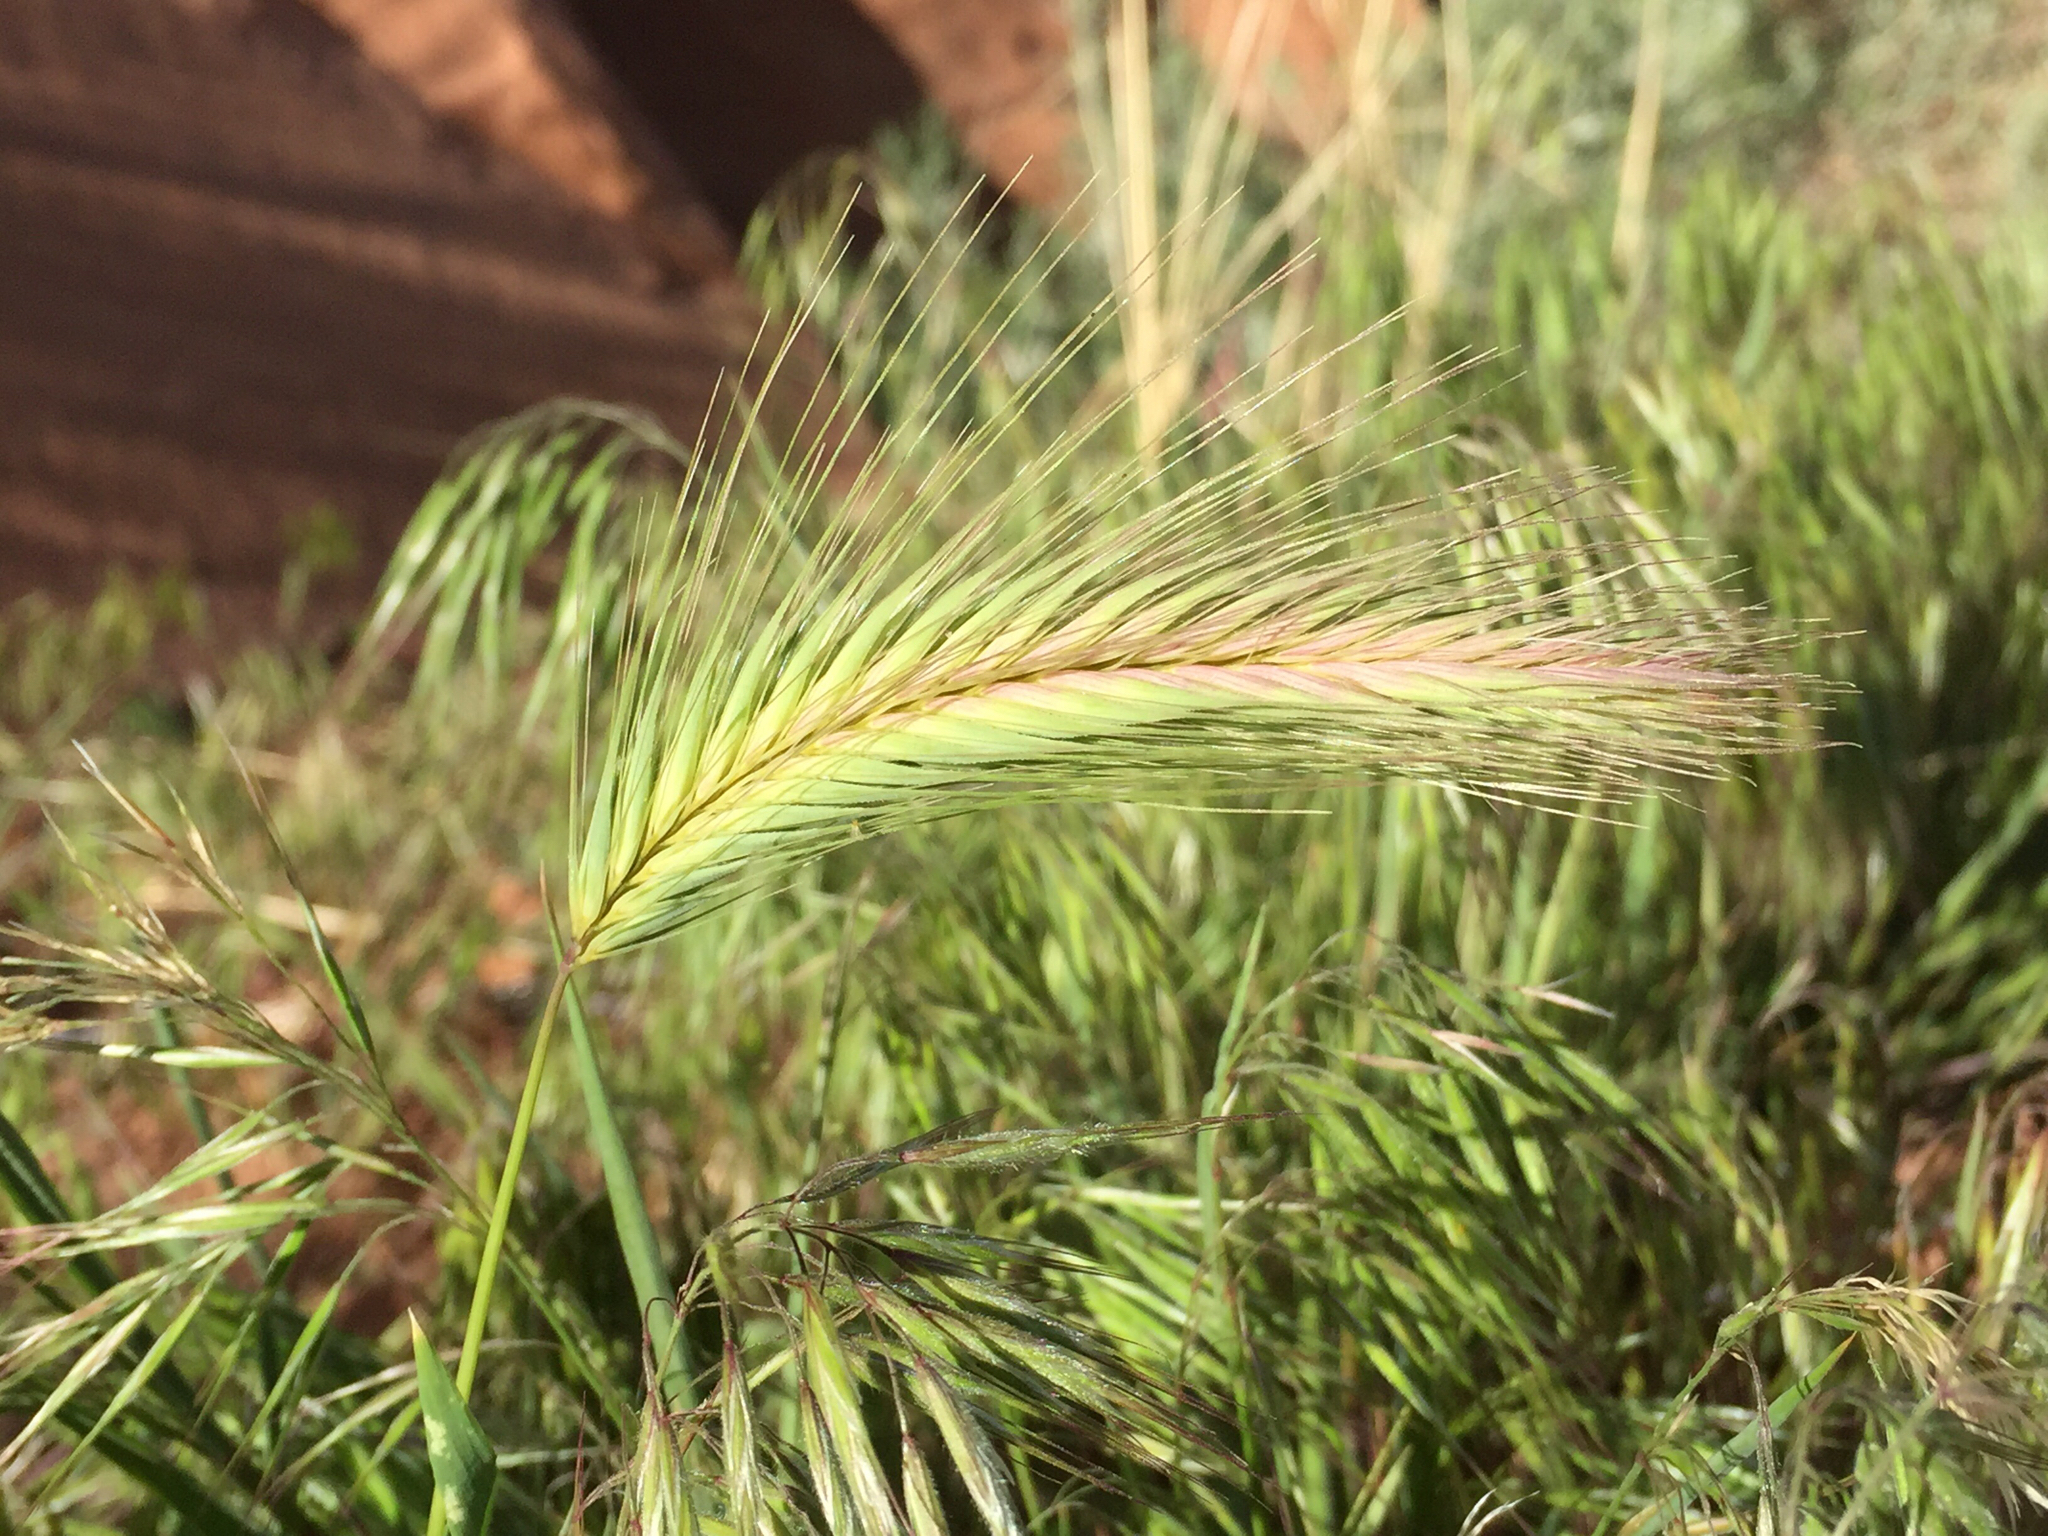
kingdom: Plantae
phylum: Tracheophyta
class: Liliopsida
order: Poales
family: Poaceae
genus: Hordeum
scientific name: Hordeum murinum
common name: Wall barley
